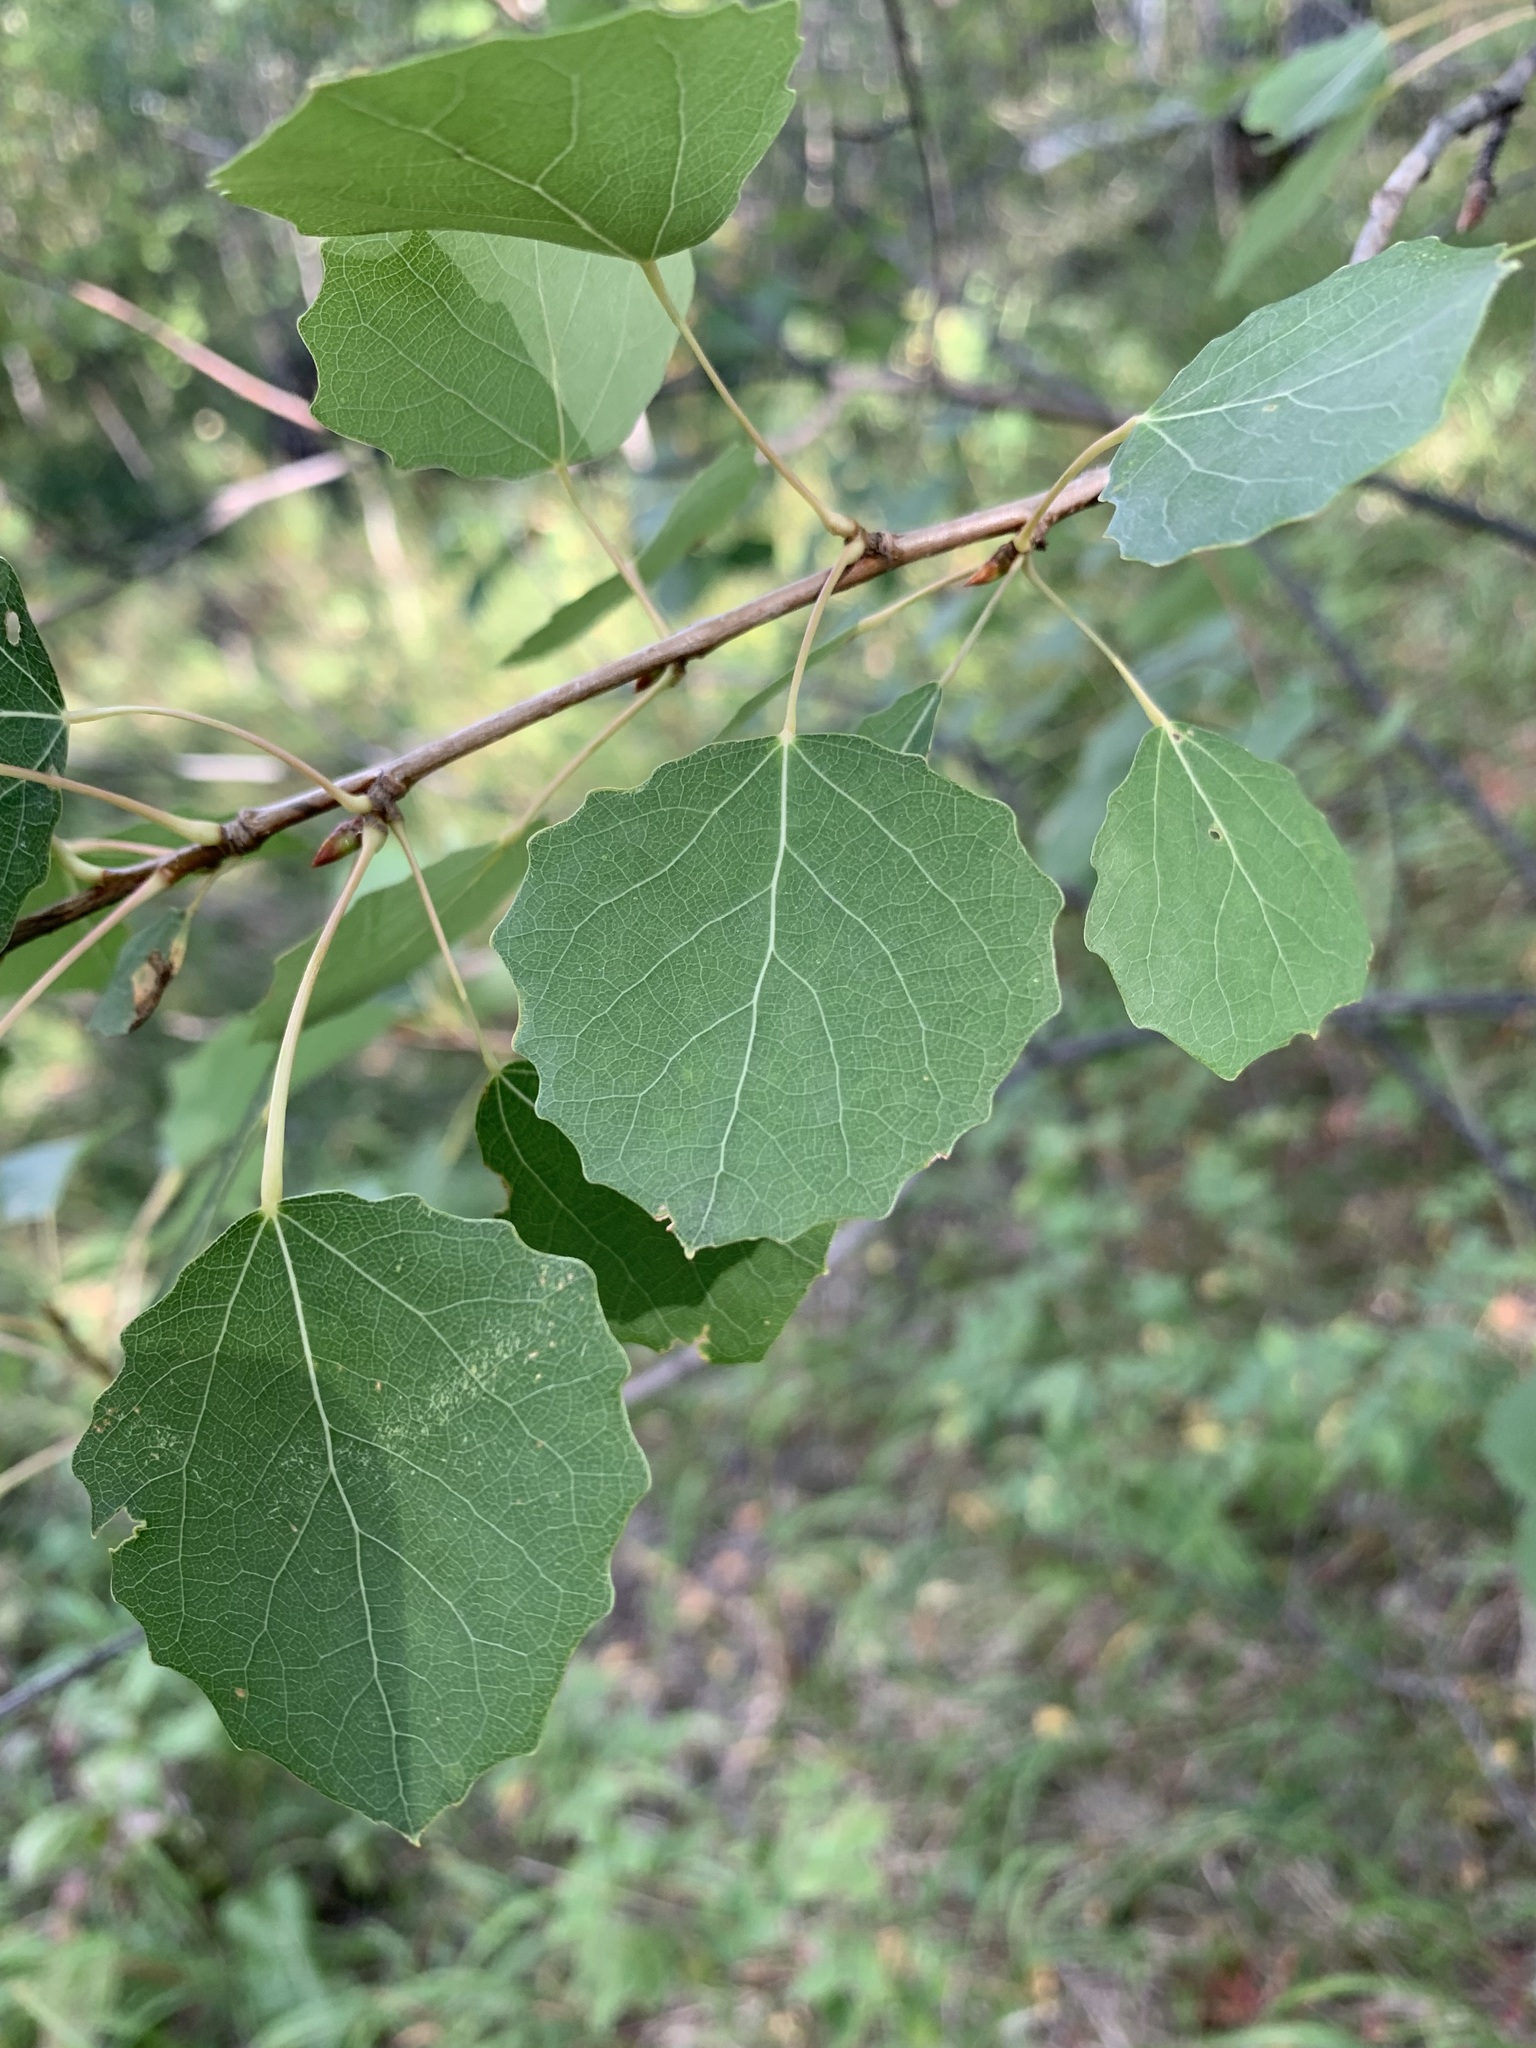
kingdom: Plantae
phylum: Tracheophyta
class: Magnoliopsida
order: Malpighiales
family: Salicaceae
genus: Populus
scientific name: Populus tremula
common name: European aspen
